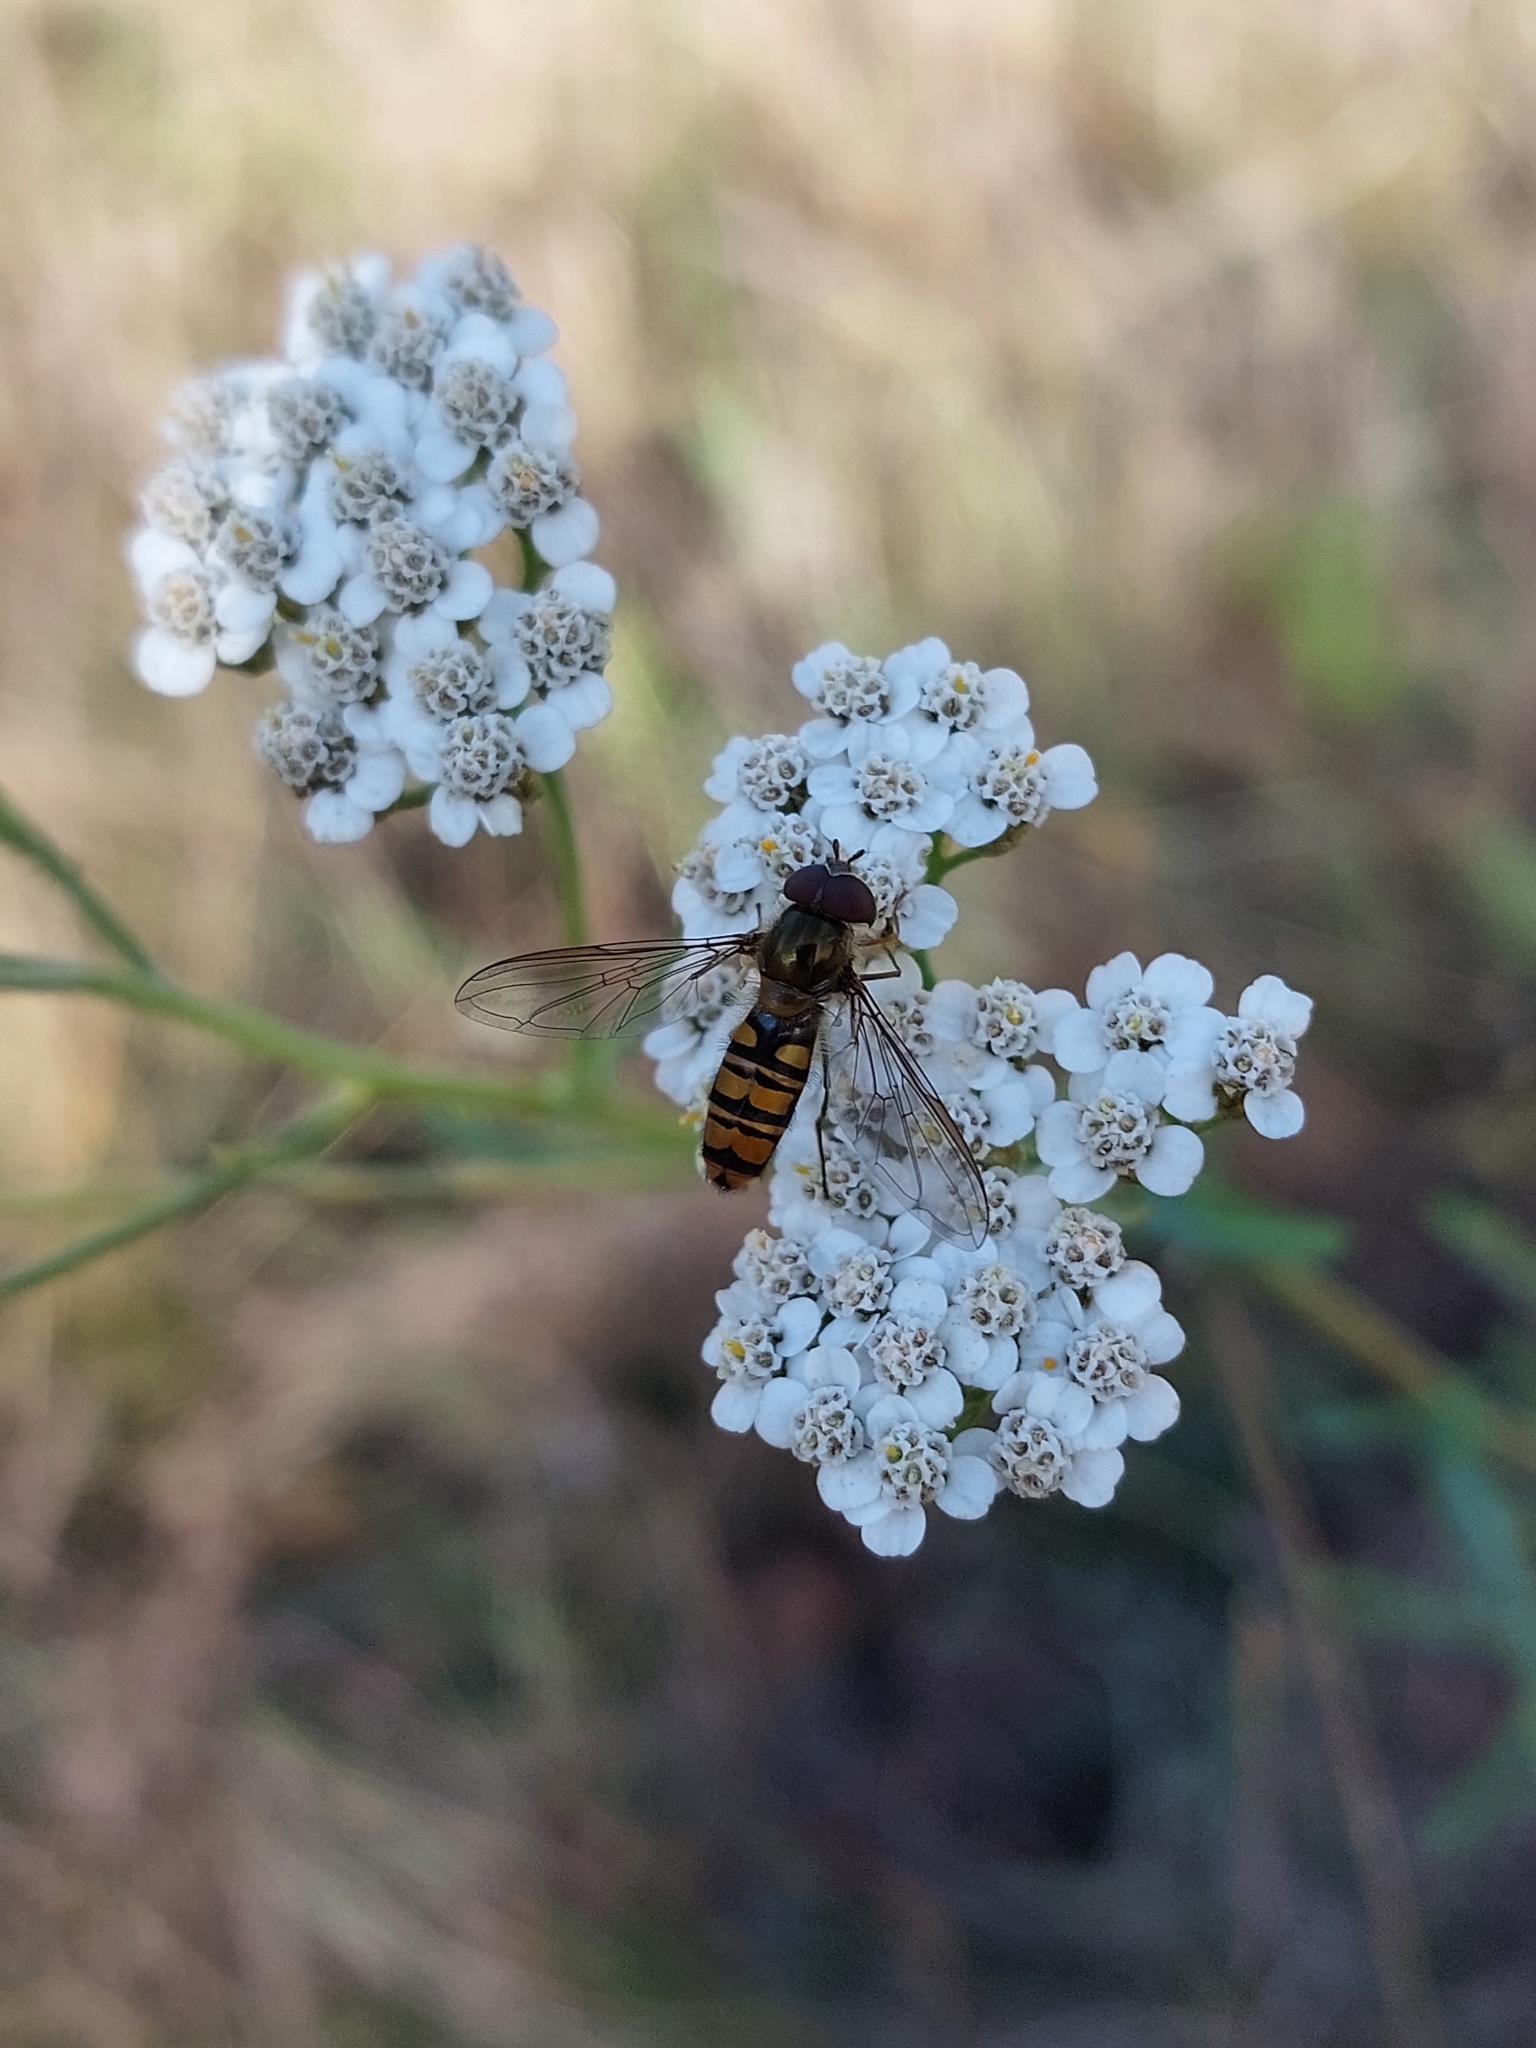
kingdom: Animalia
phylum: Arthropoda
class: Insecta
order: Diptera
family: Syrphidae
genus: Episyrphus
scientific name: Episyrphus balteatus
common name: Marmalade hoverfly
